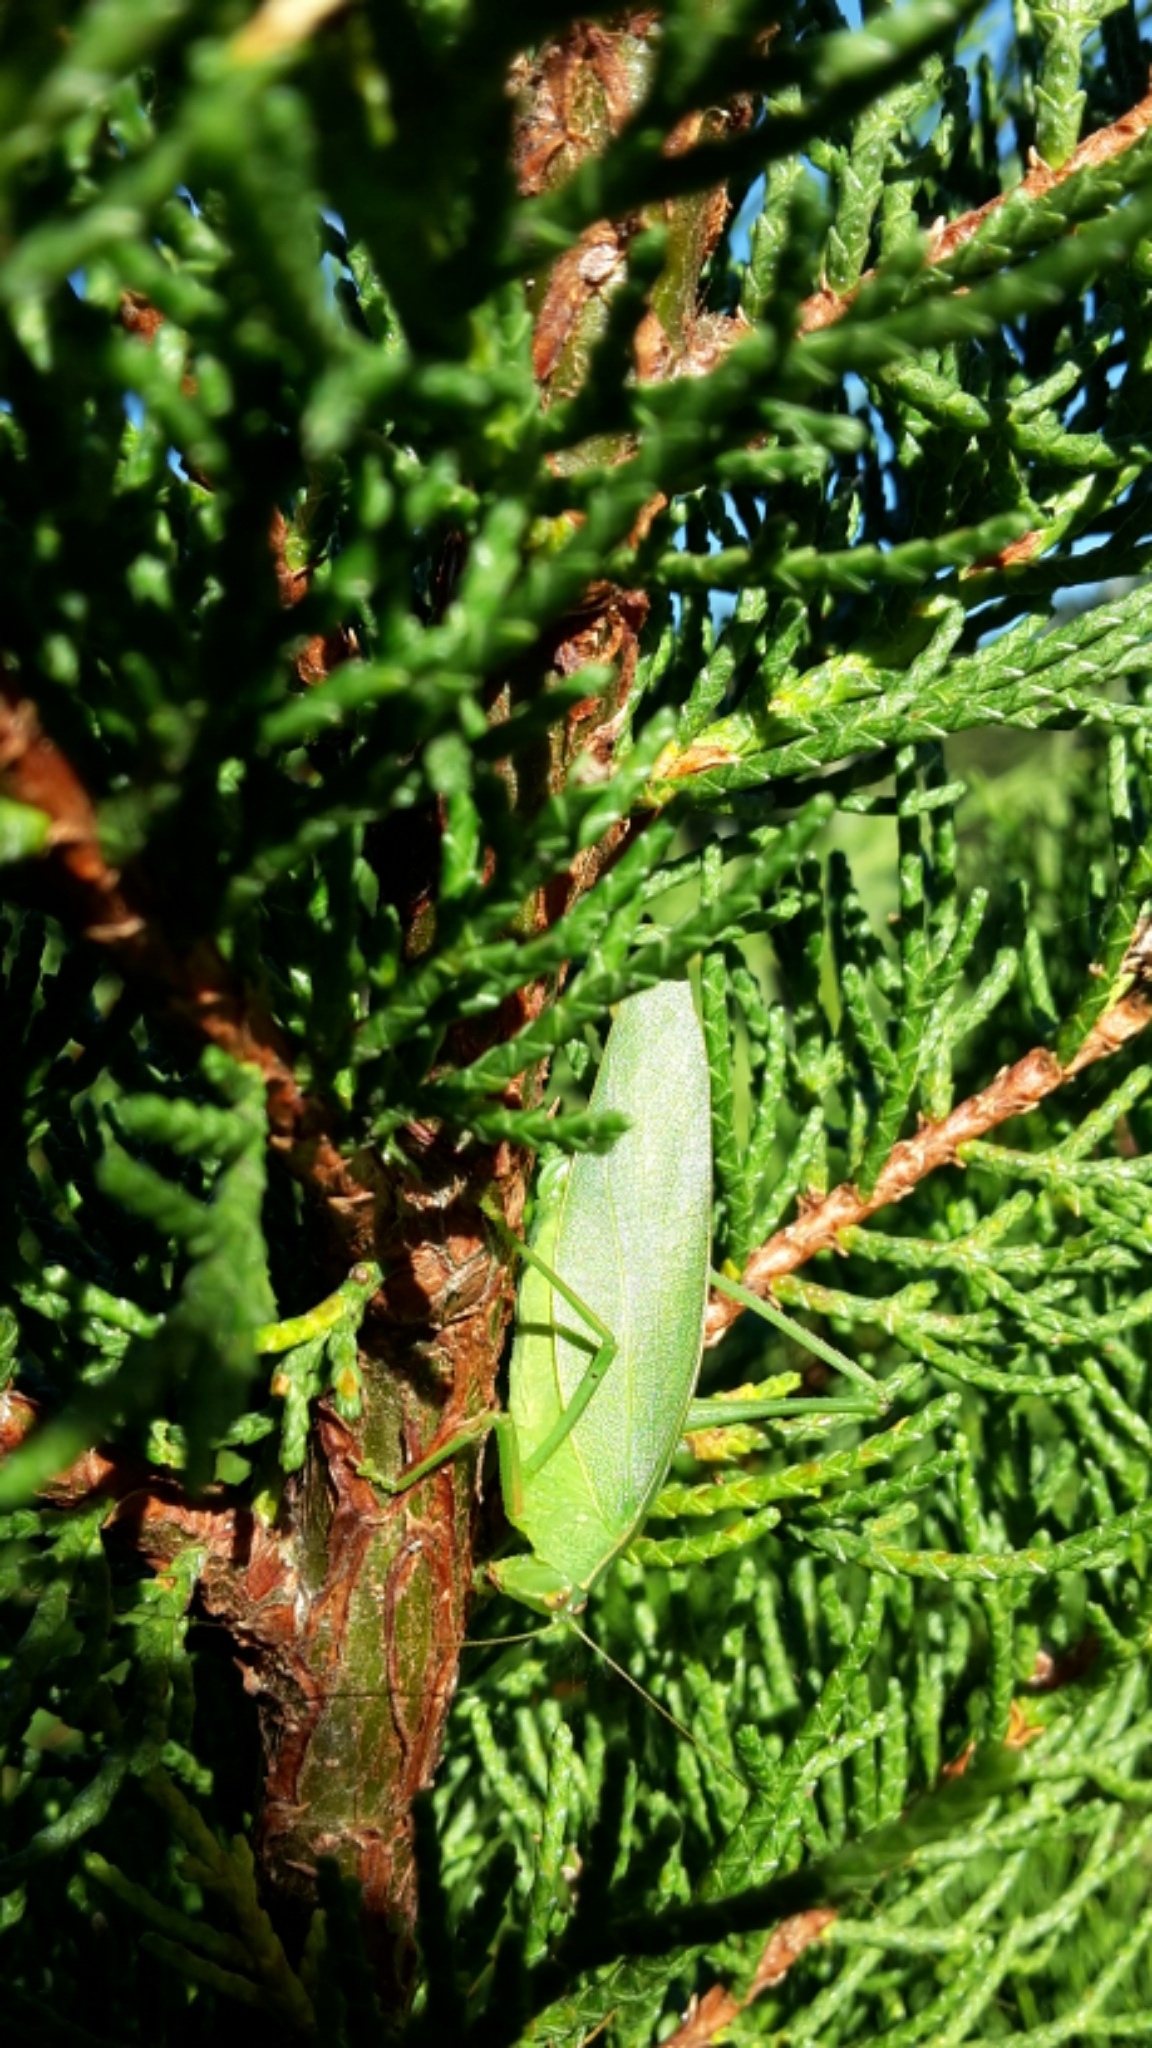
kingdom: Animalia
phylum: Arthropoda
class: Insecta
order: Orthoptera
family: Tettigoniidae
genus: Caedicia
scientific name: Caedicia simplex
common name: Common garden katydid
